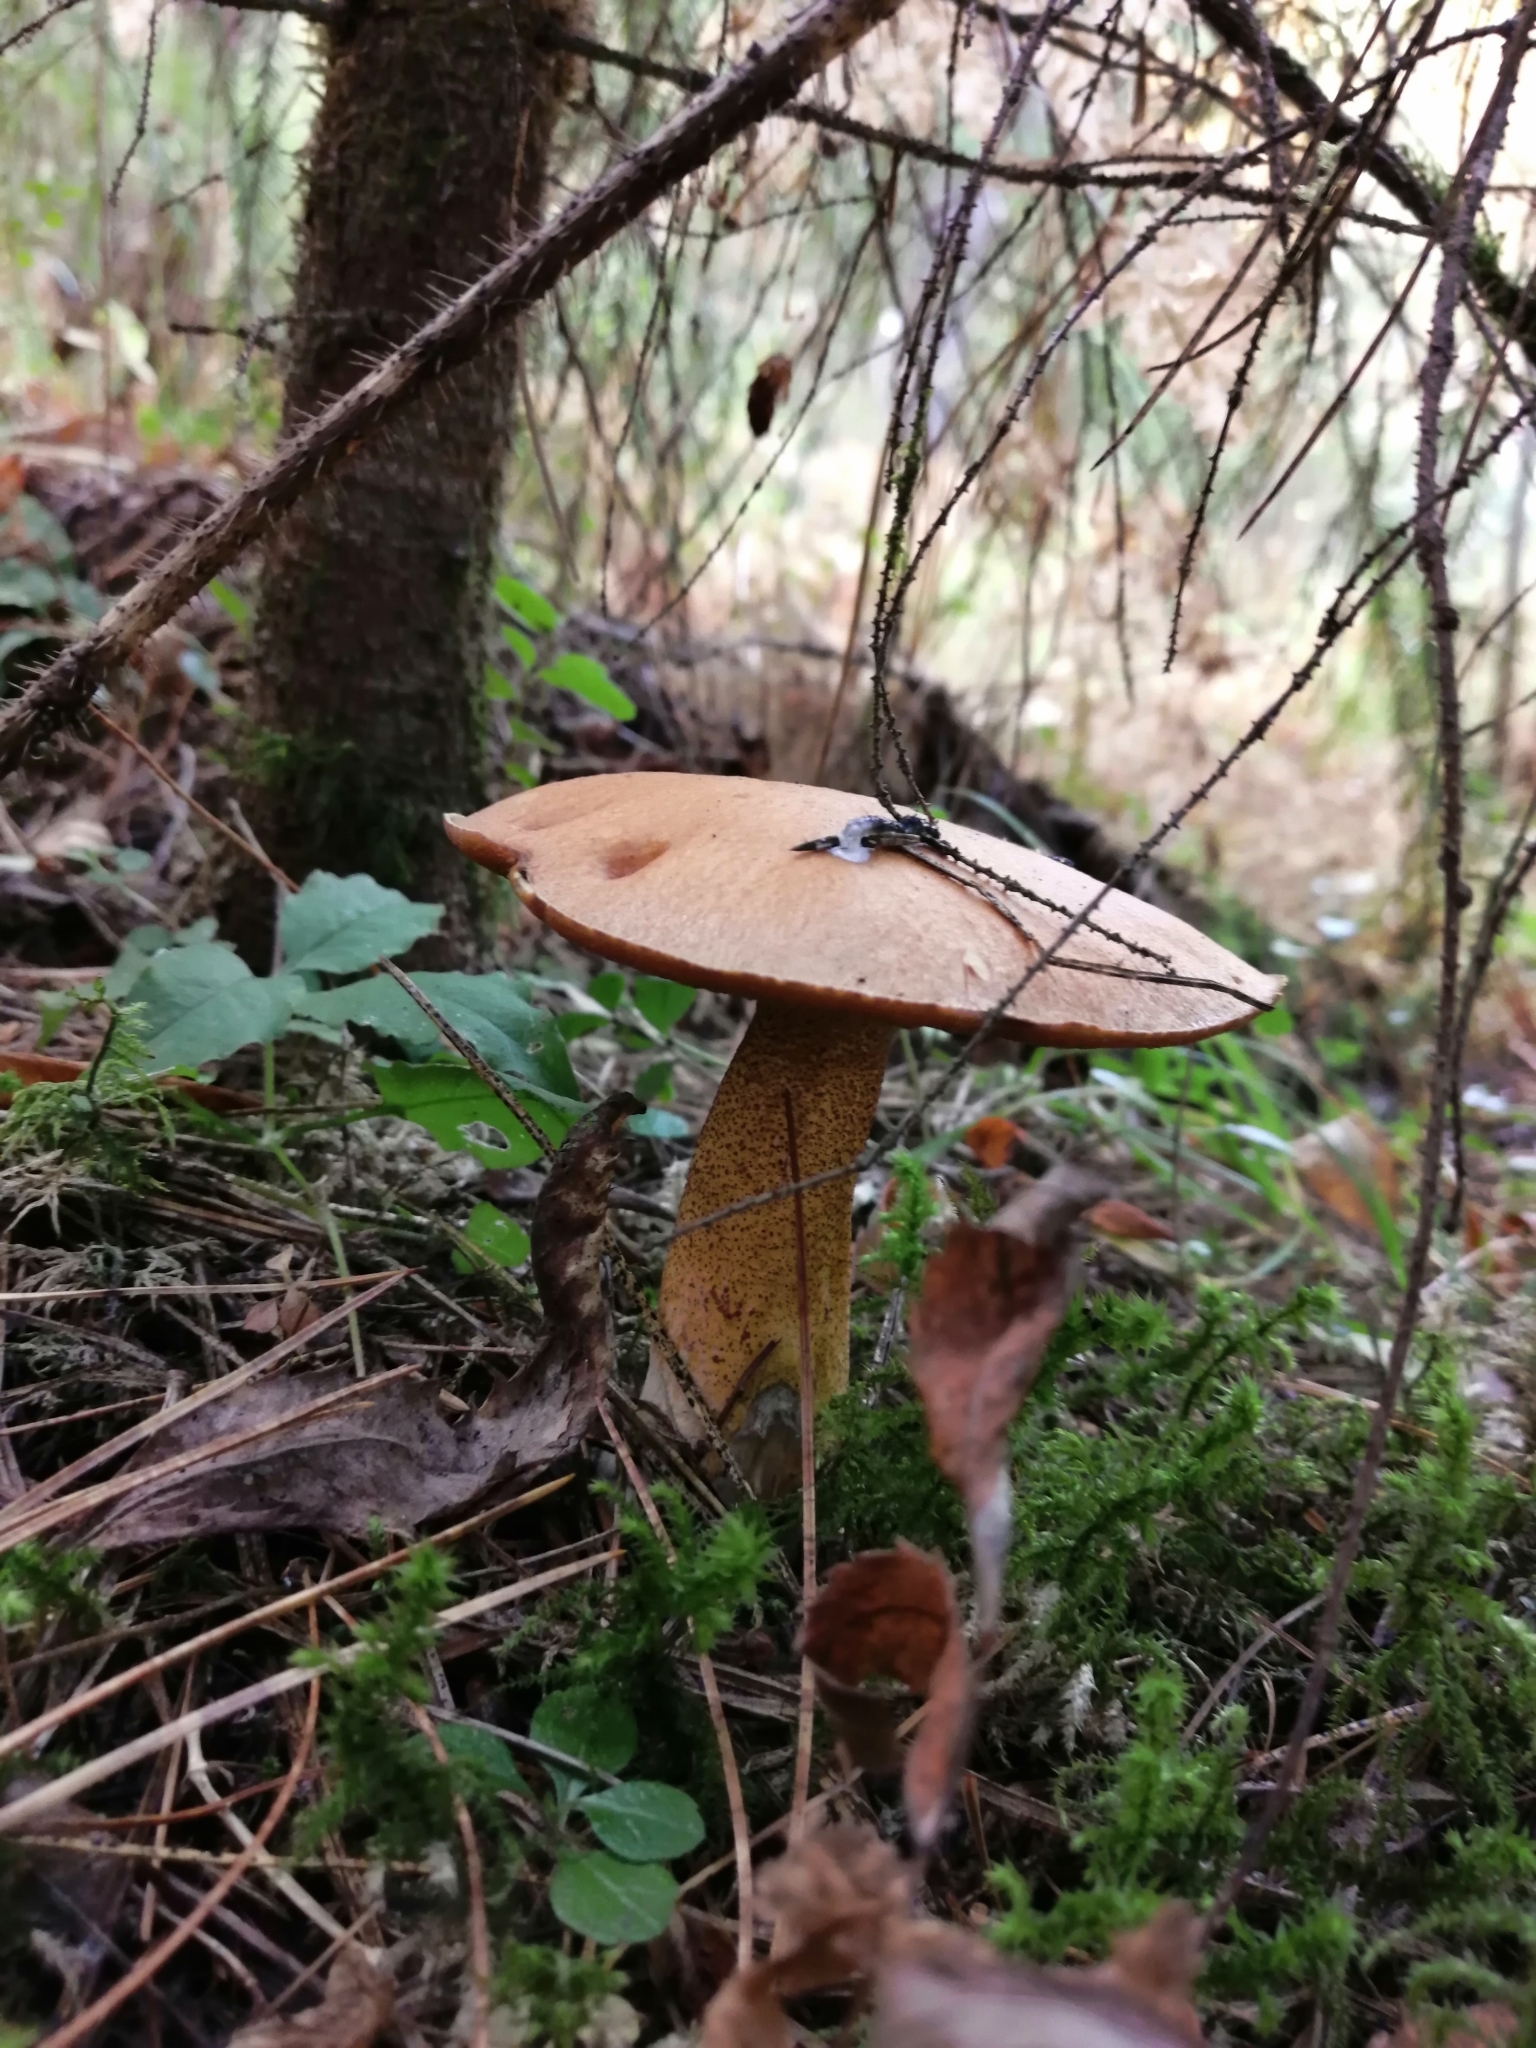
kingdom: Fungi
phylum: Basidiomycota
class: Agaricomycetes
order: Boletales
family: Suillaceae
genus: Suillus
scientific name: Suillus variegatus
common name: Velvet bolete
